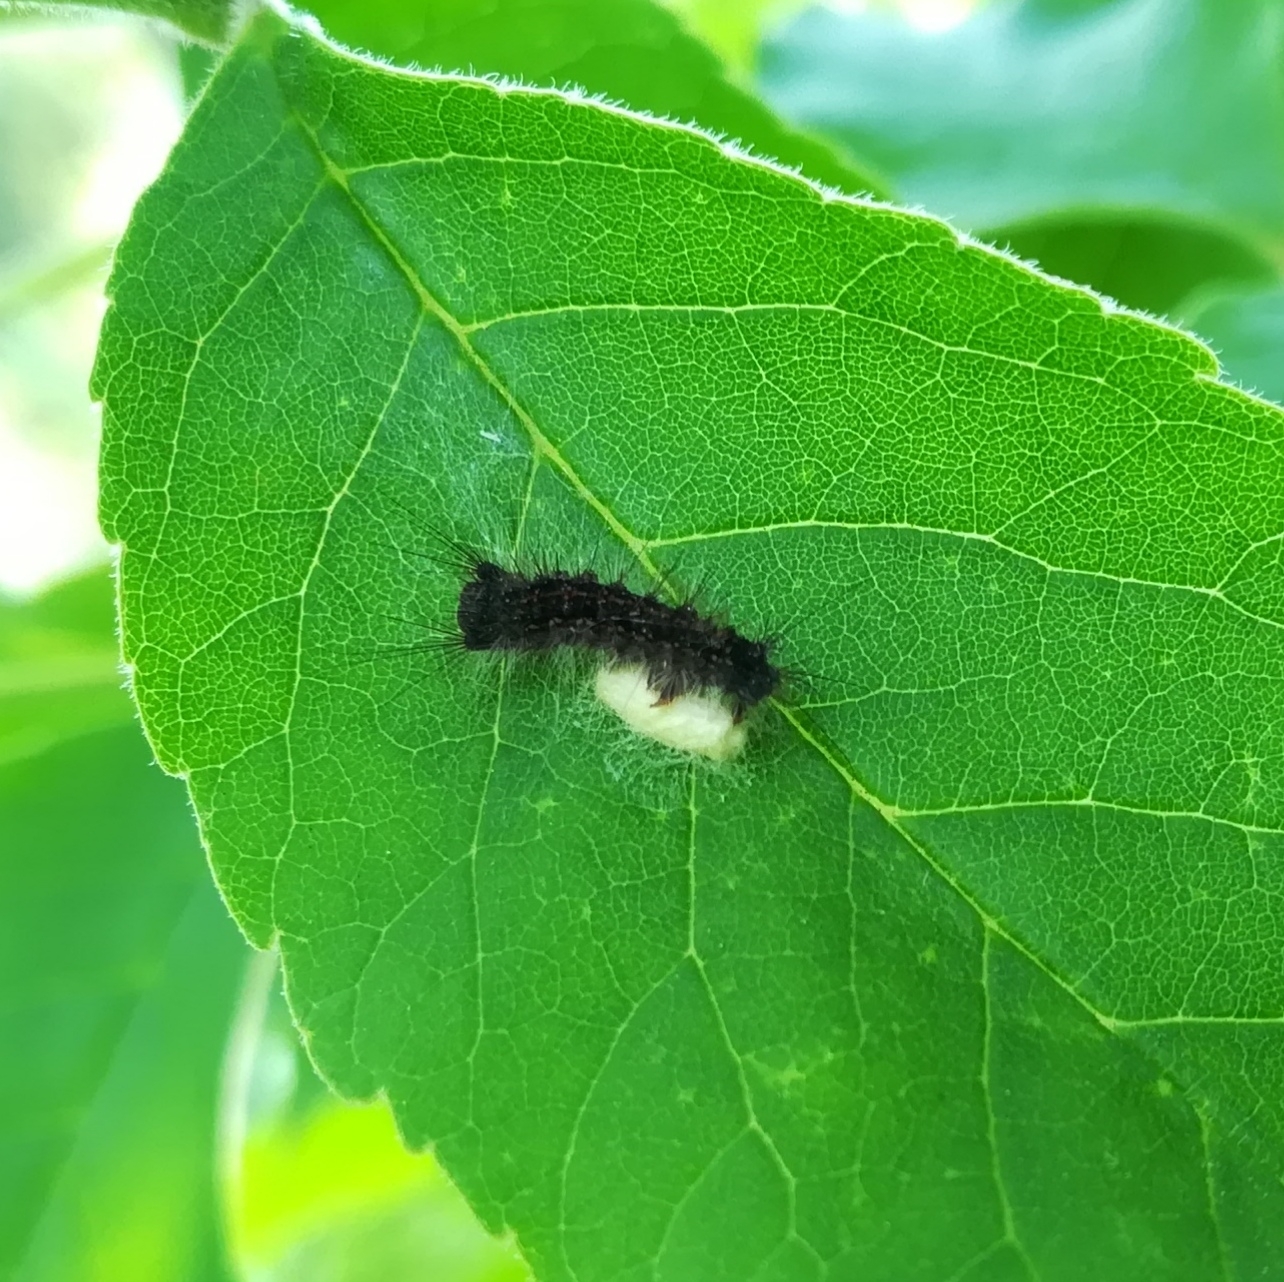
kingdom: Animalia
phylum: Arthropoda
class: Insecta
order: Lepidoptera
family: Erebidae
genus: Lymantria
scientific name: Lymantria dispar
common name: Gypsy moth
